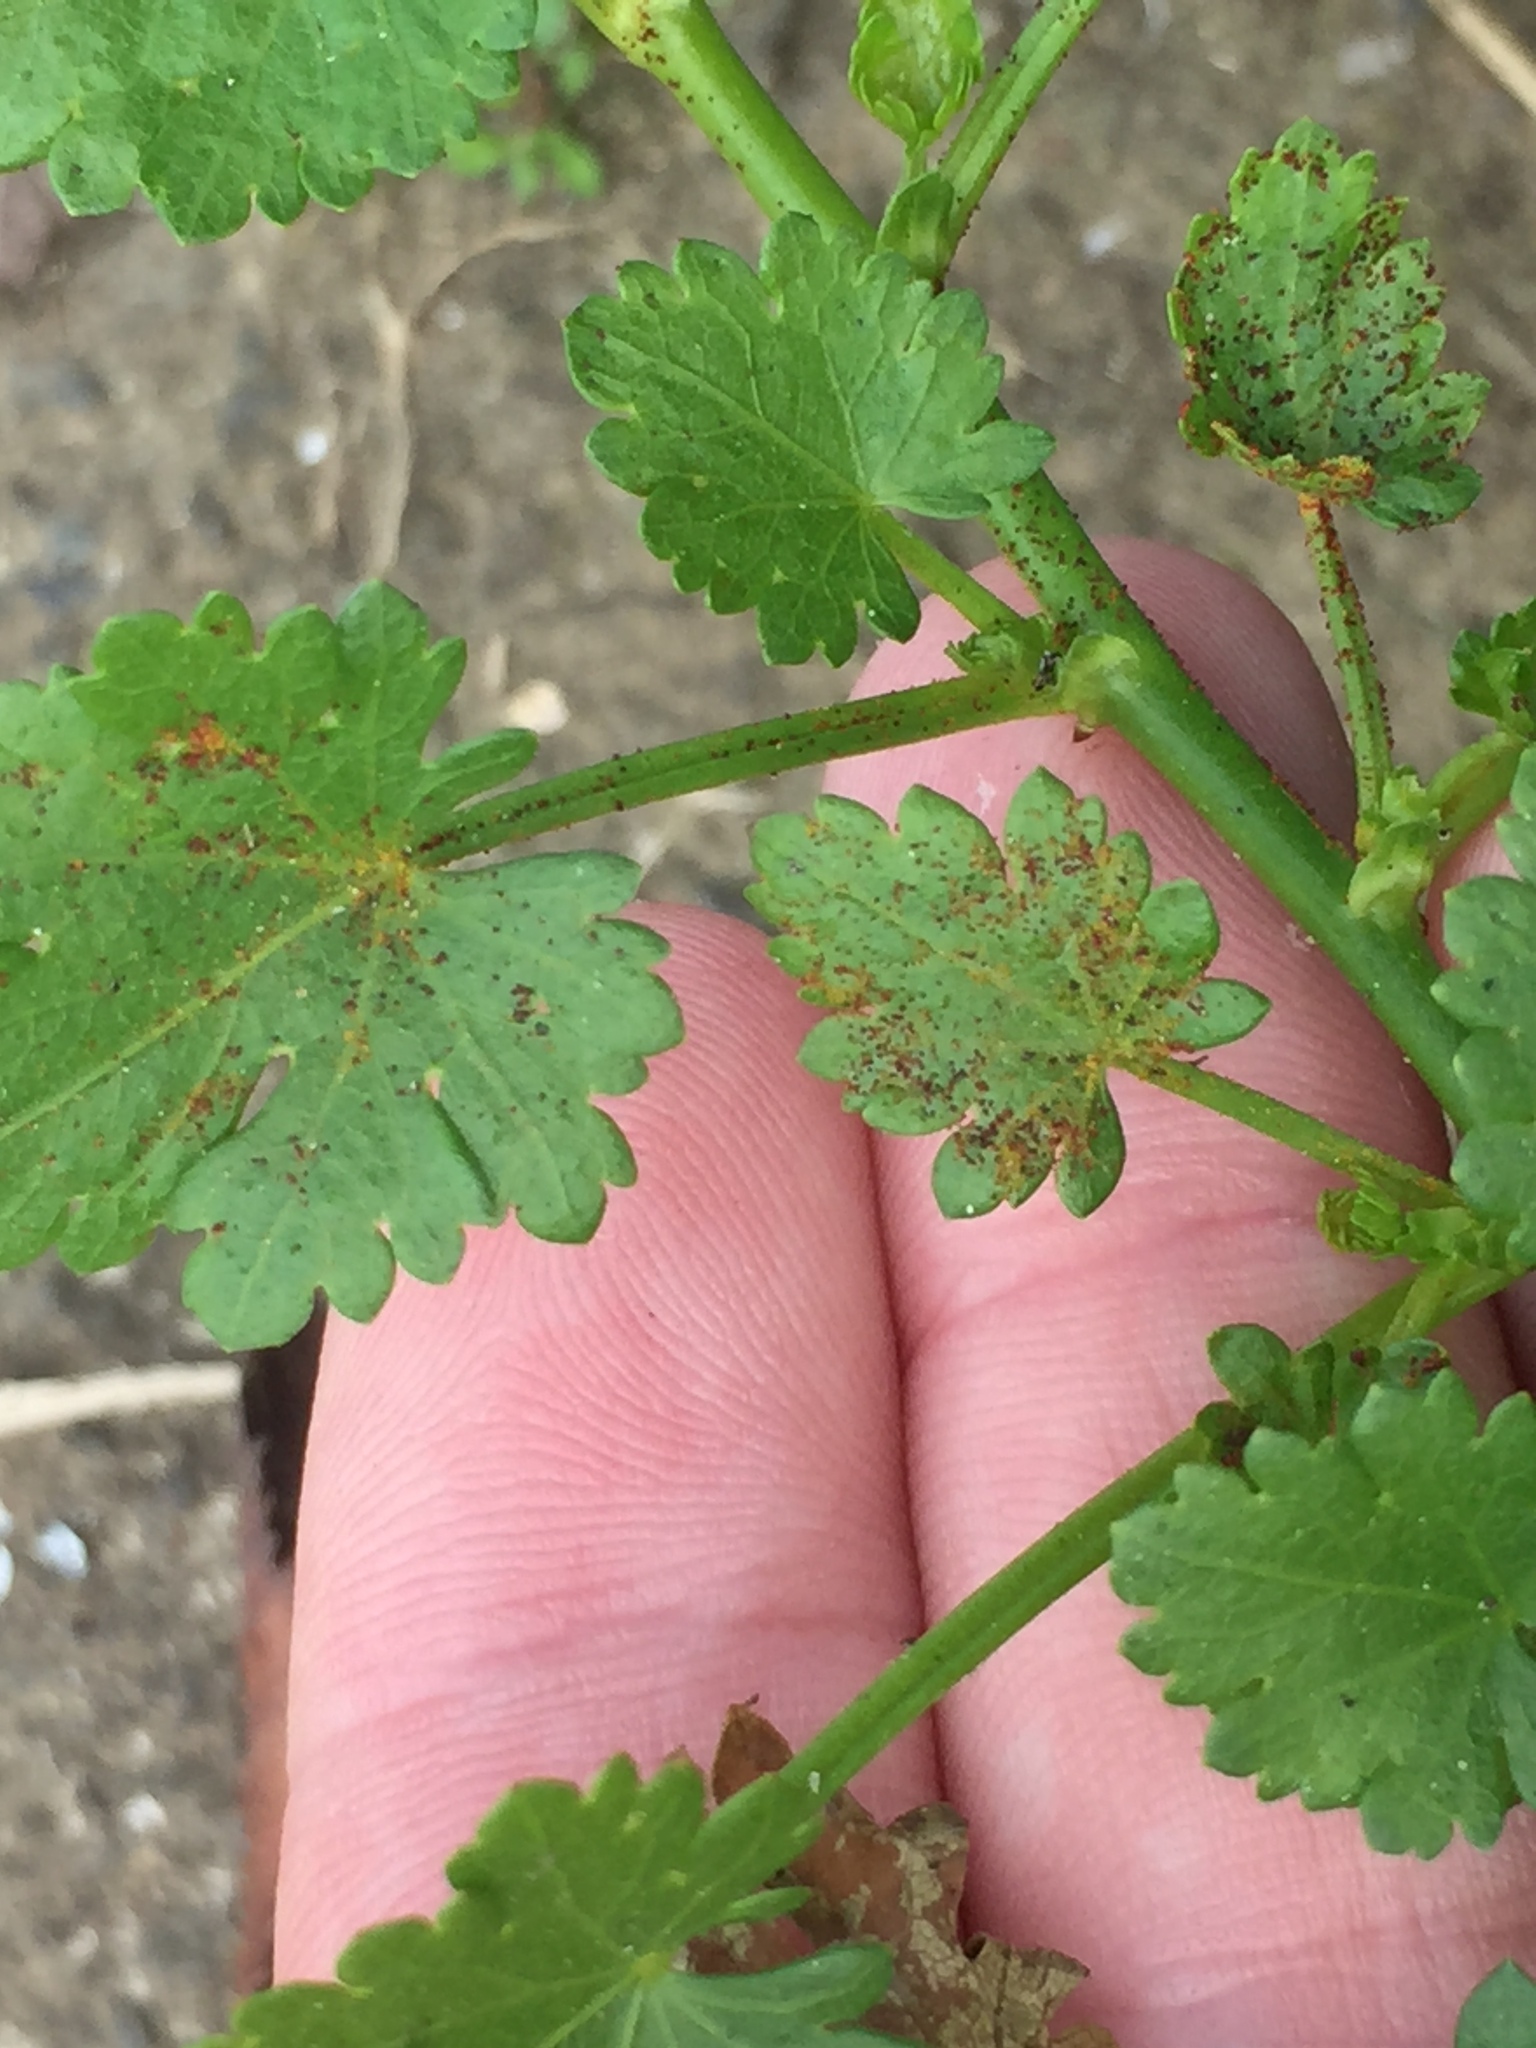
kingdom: Fungi
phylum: Chytridiomycota
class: Chytridiomycetes
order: Chytridiales
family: Synchytriaceae
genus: Synchytrium
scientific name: Synchytrium australe
